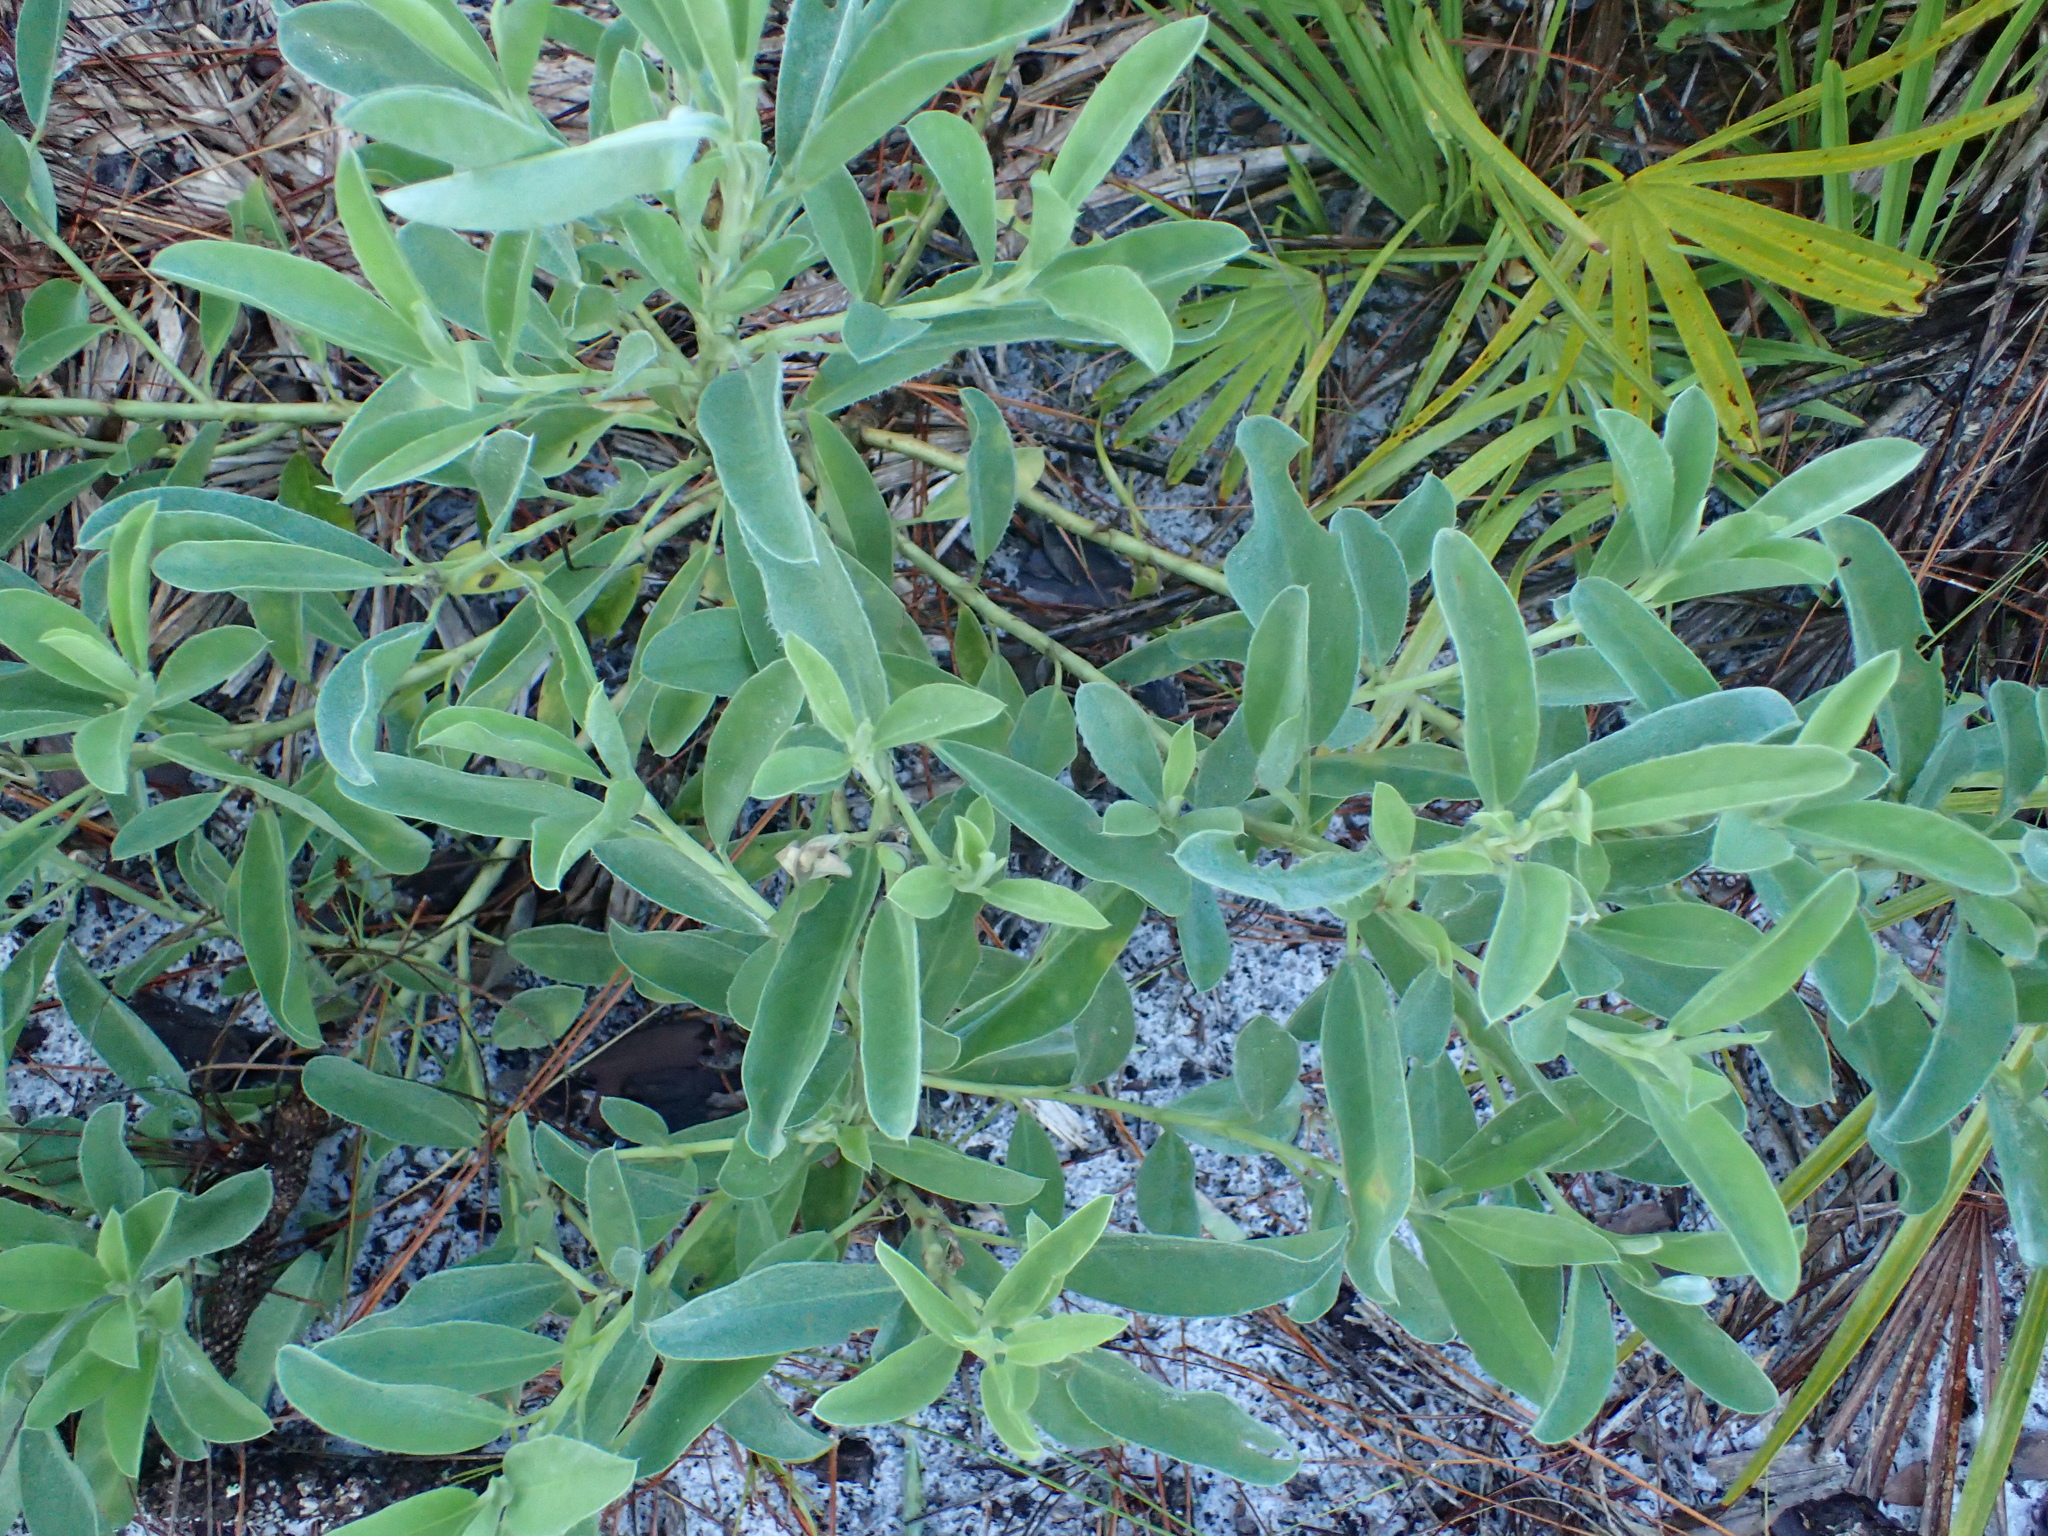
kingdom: Plantae
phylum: Tracheophyta
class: Magnoliopsida
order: Fabales
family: Fabaceae
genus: Lupinus
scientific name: Lupinus
